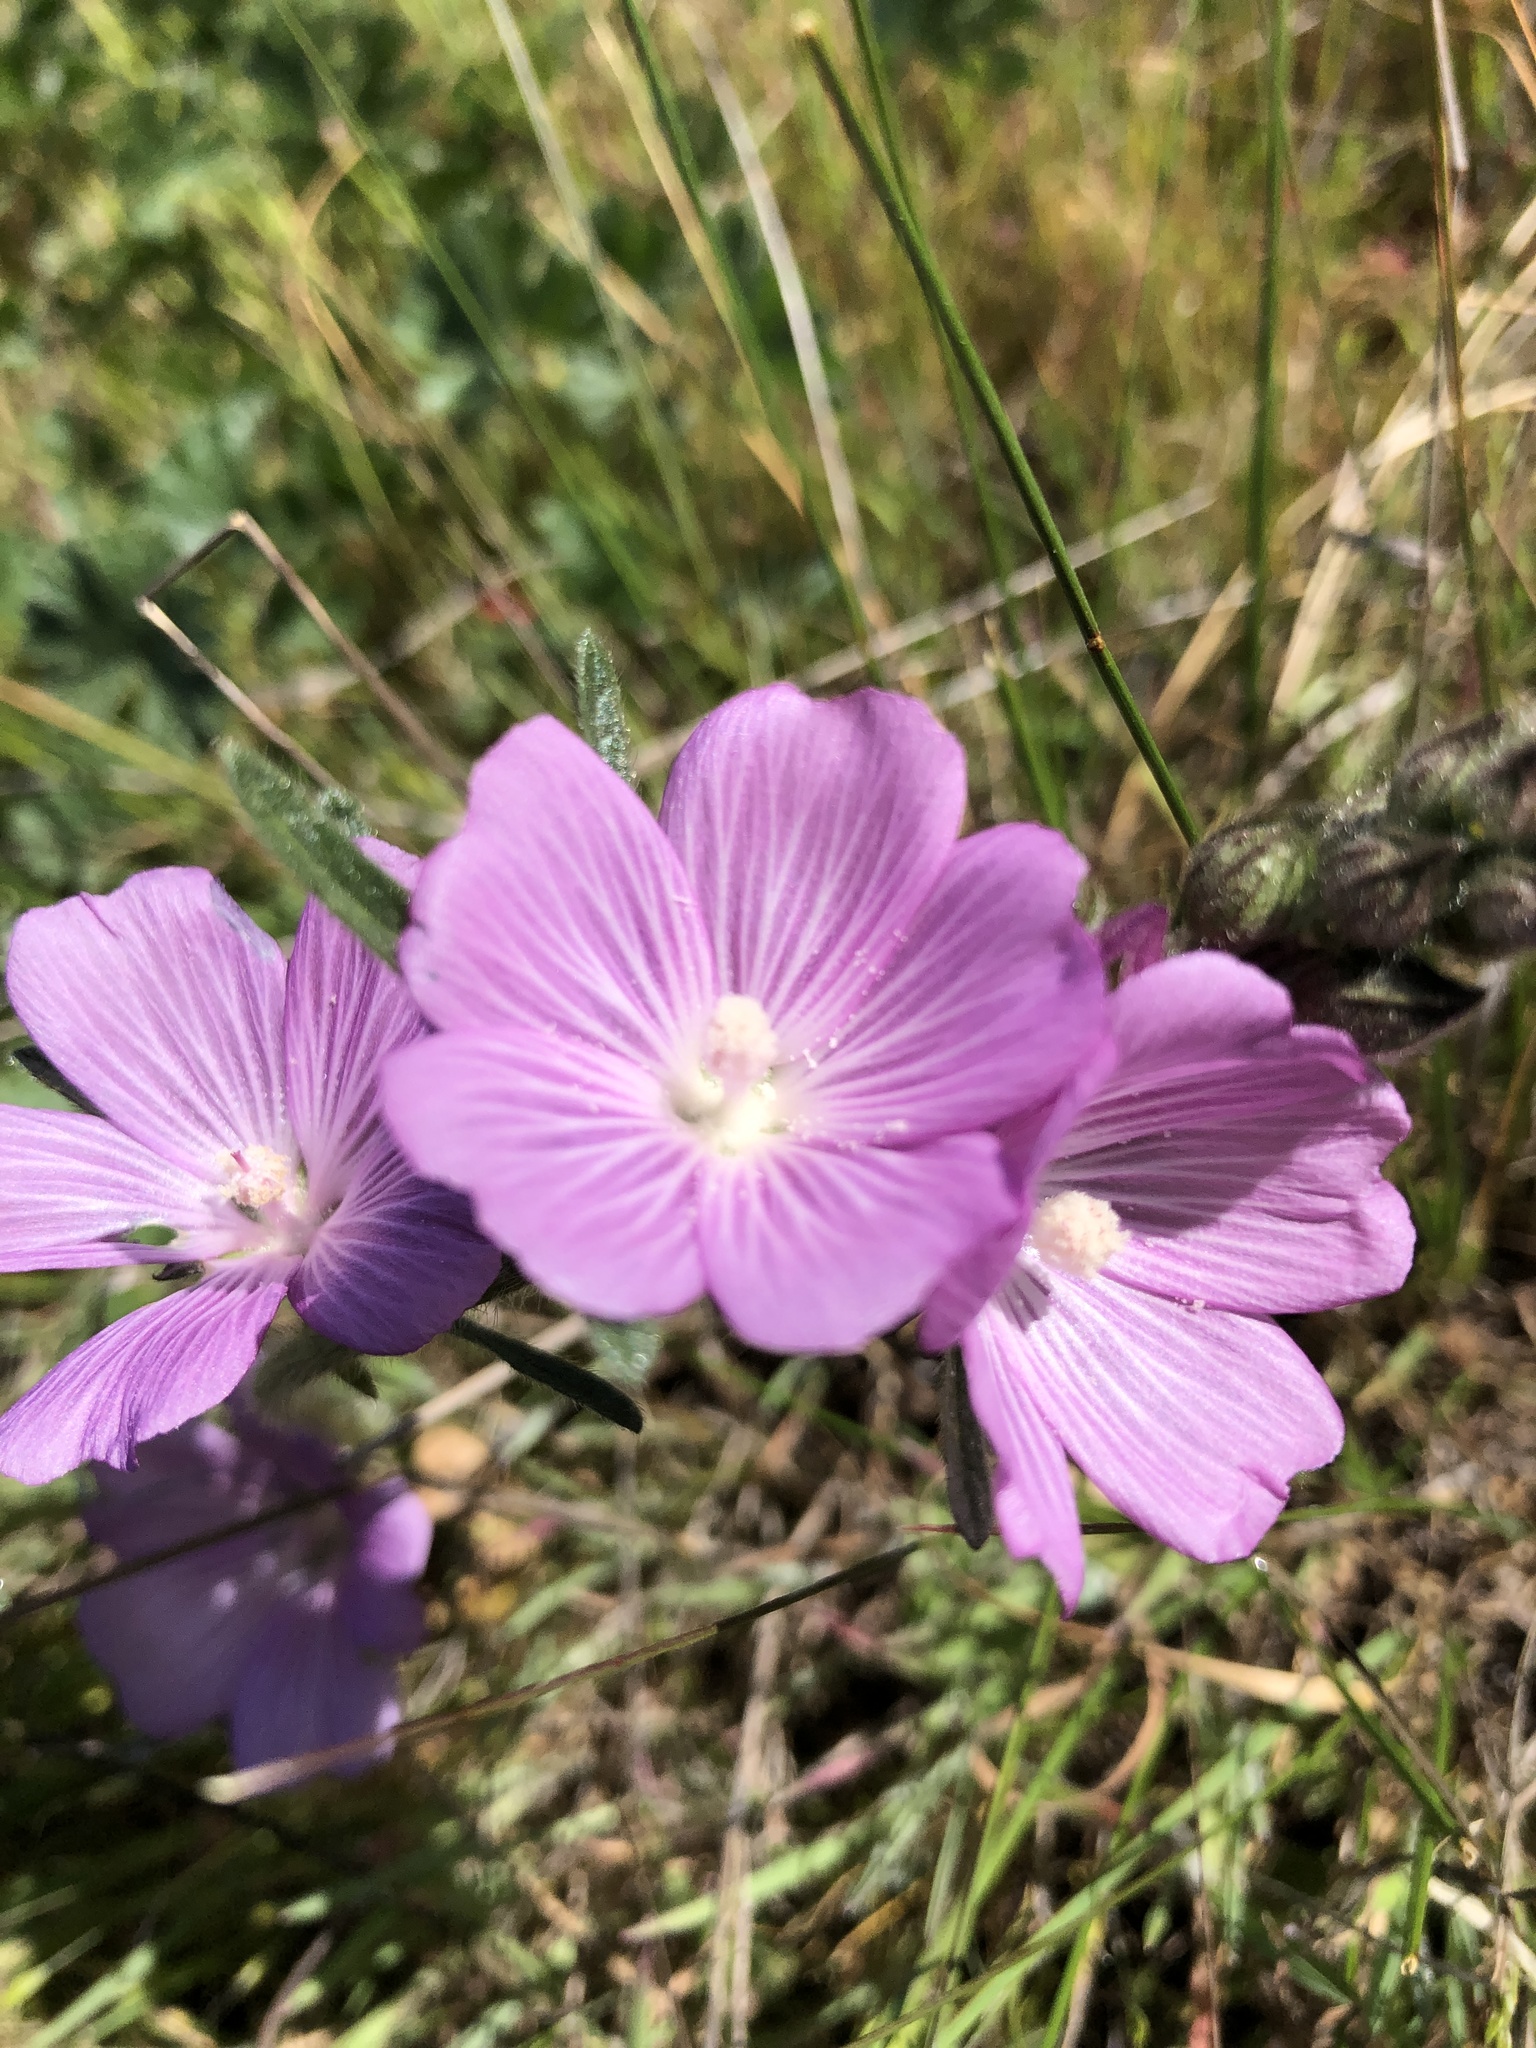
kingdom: Plantae
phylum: Tracheophyta
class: Magnoliopsida
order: Malvales
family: Malvaceae
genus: Sidalcea
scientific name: Sidalcea malviflora
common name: Greek mallow
